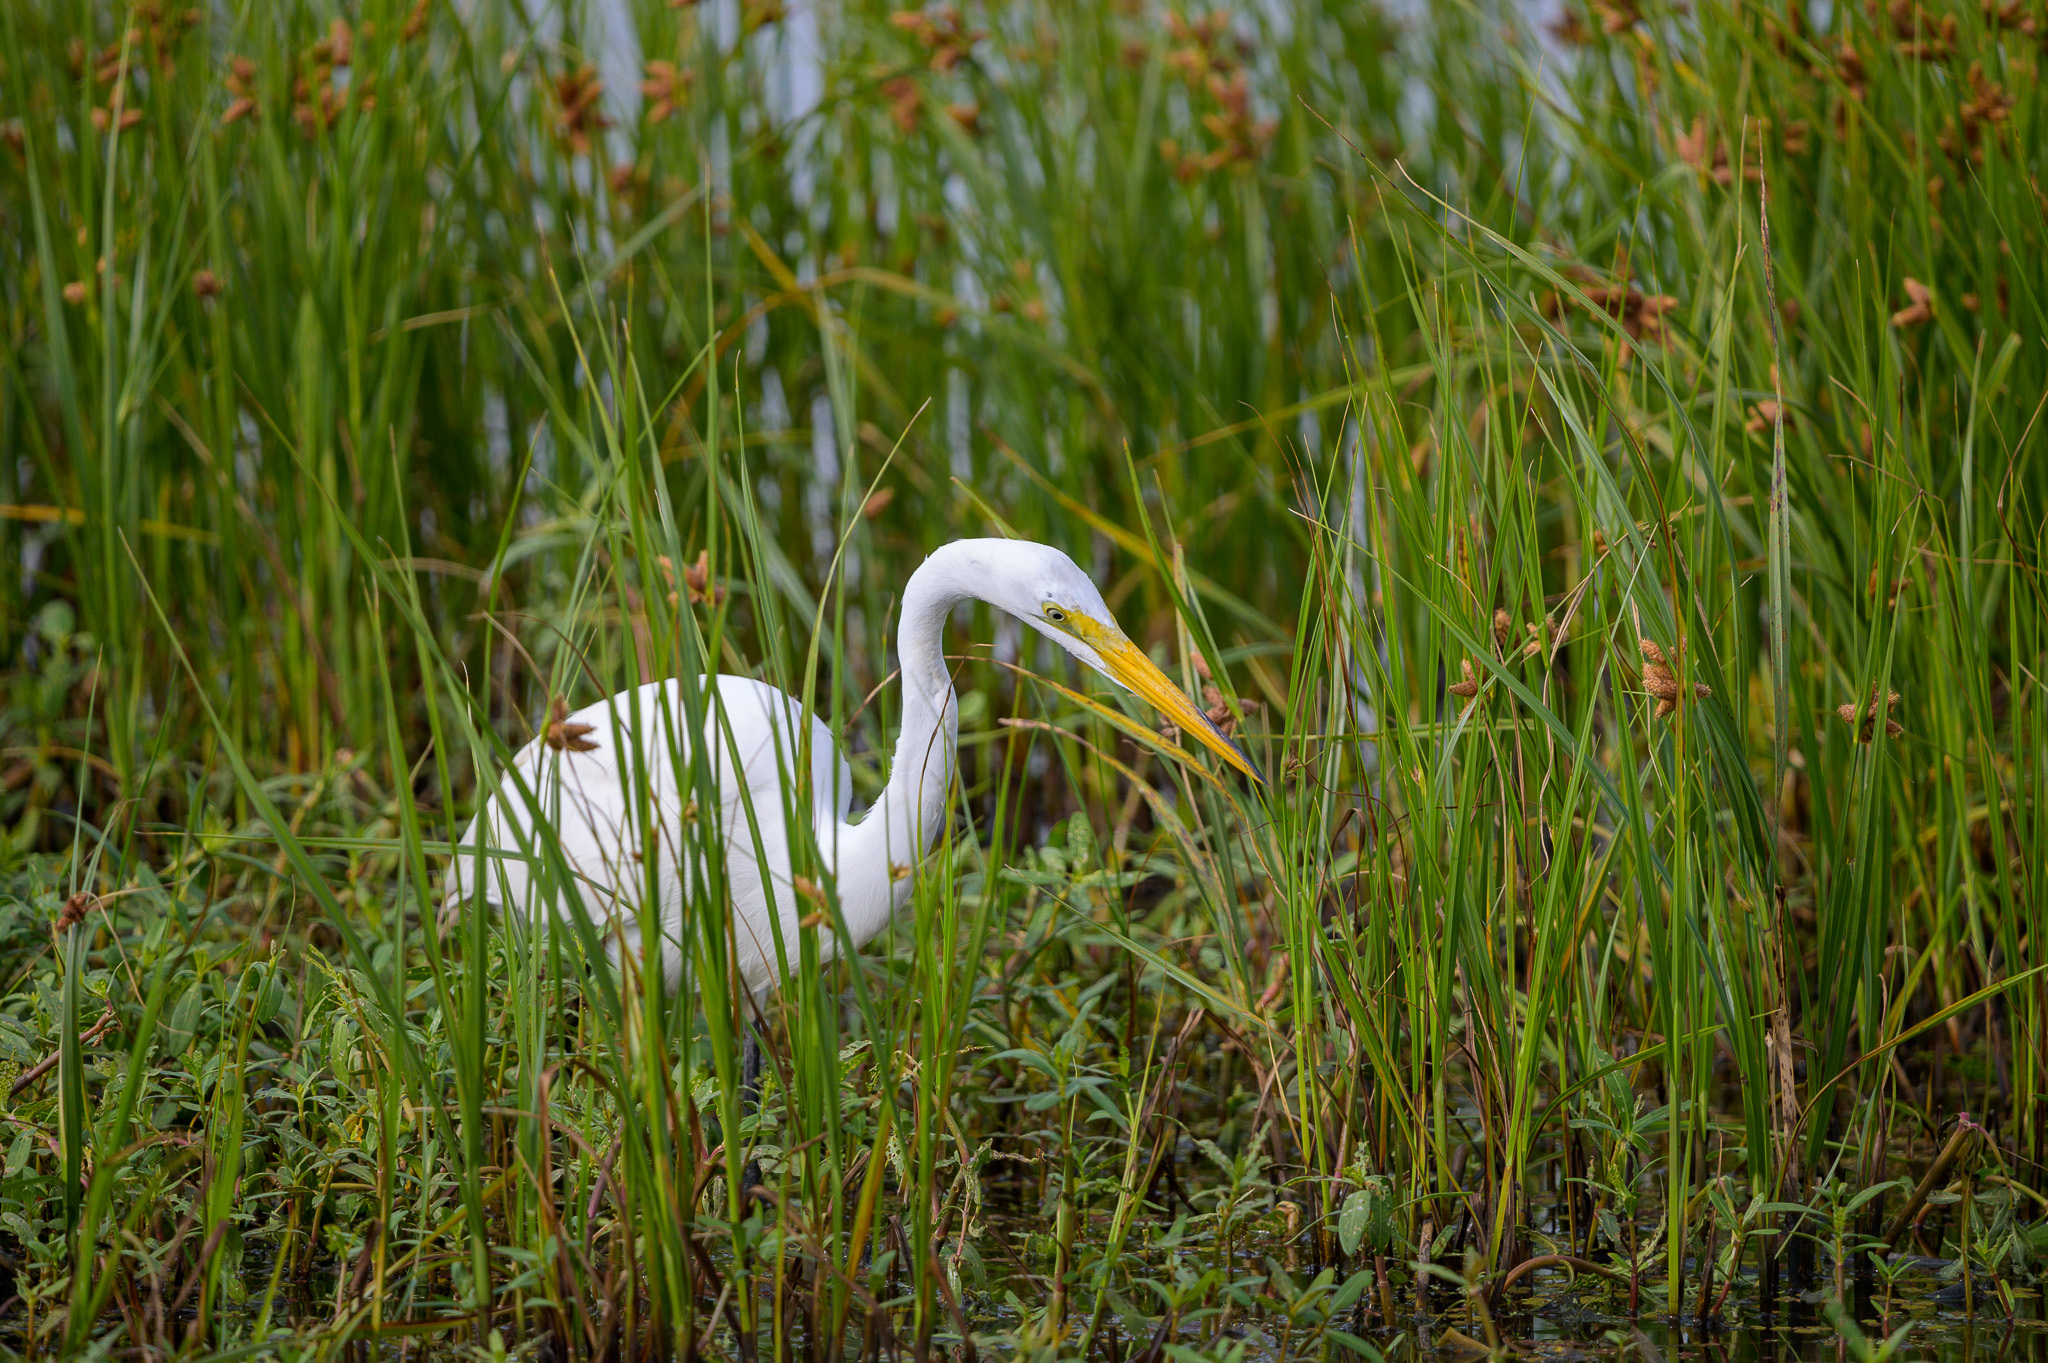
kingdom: Animalia
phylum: Chordata
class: Aves
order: Pelecaniformes
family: Ardeidae
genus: Ardea
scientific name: Ardea alba
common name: Great egret
